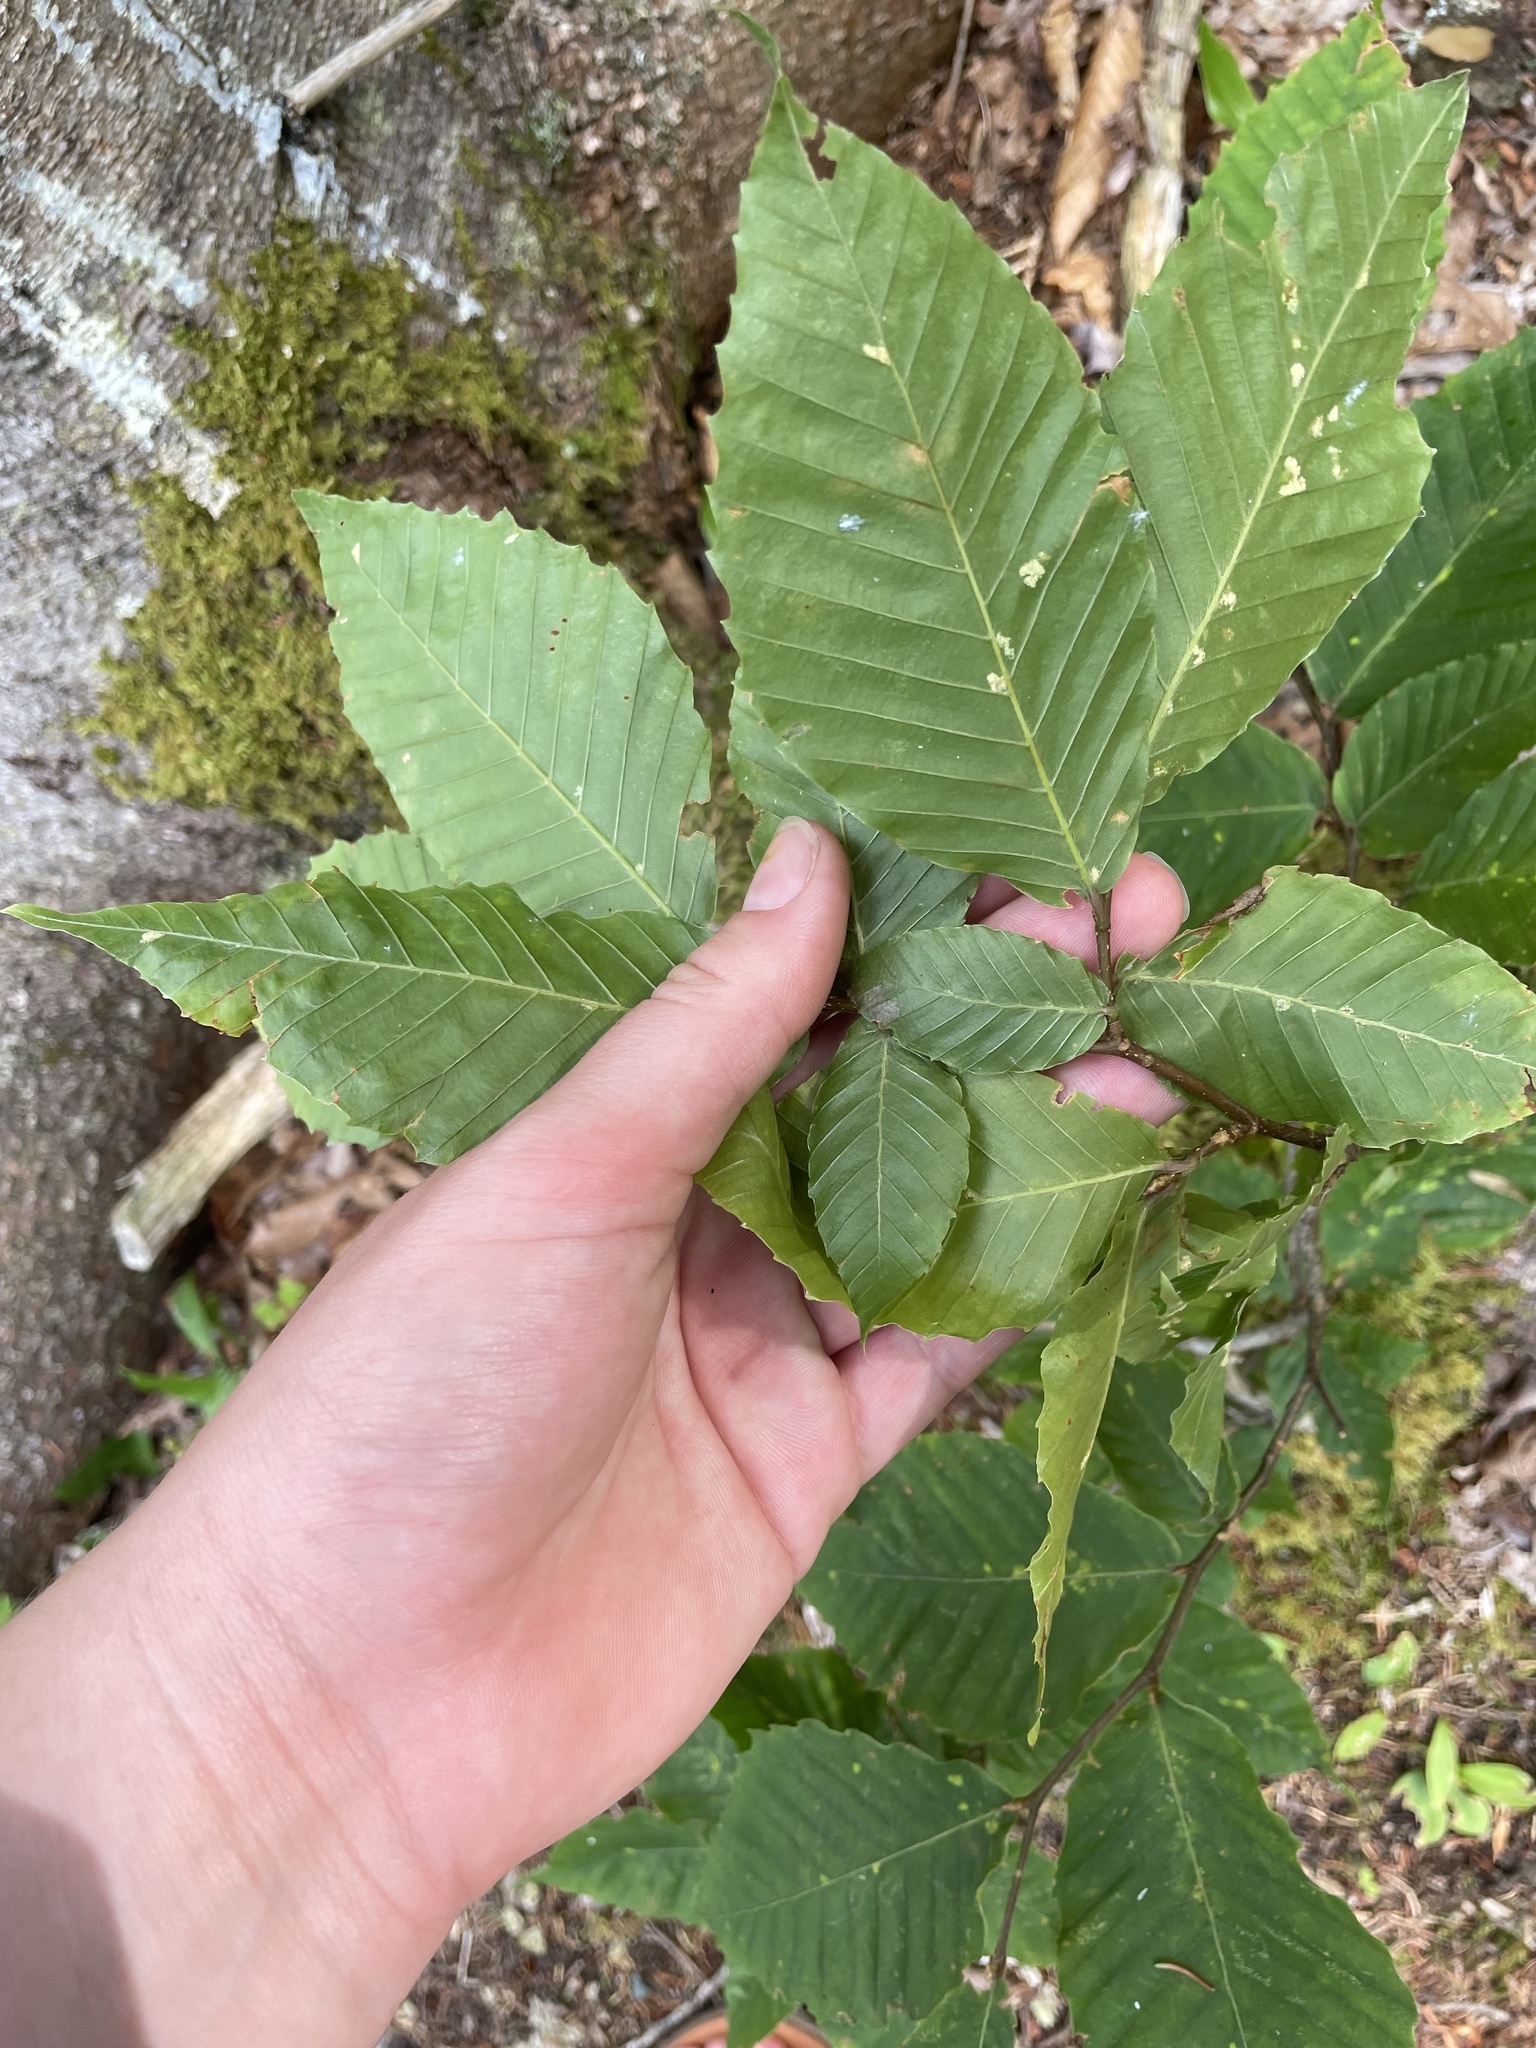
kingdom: Plantae
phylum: Tracheophyta
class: Magnoliopsida
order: Fagales
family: Fagaceae
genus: Fagus
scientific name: Fagus grandifolia
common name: American beech
